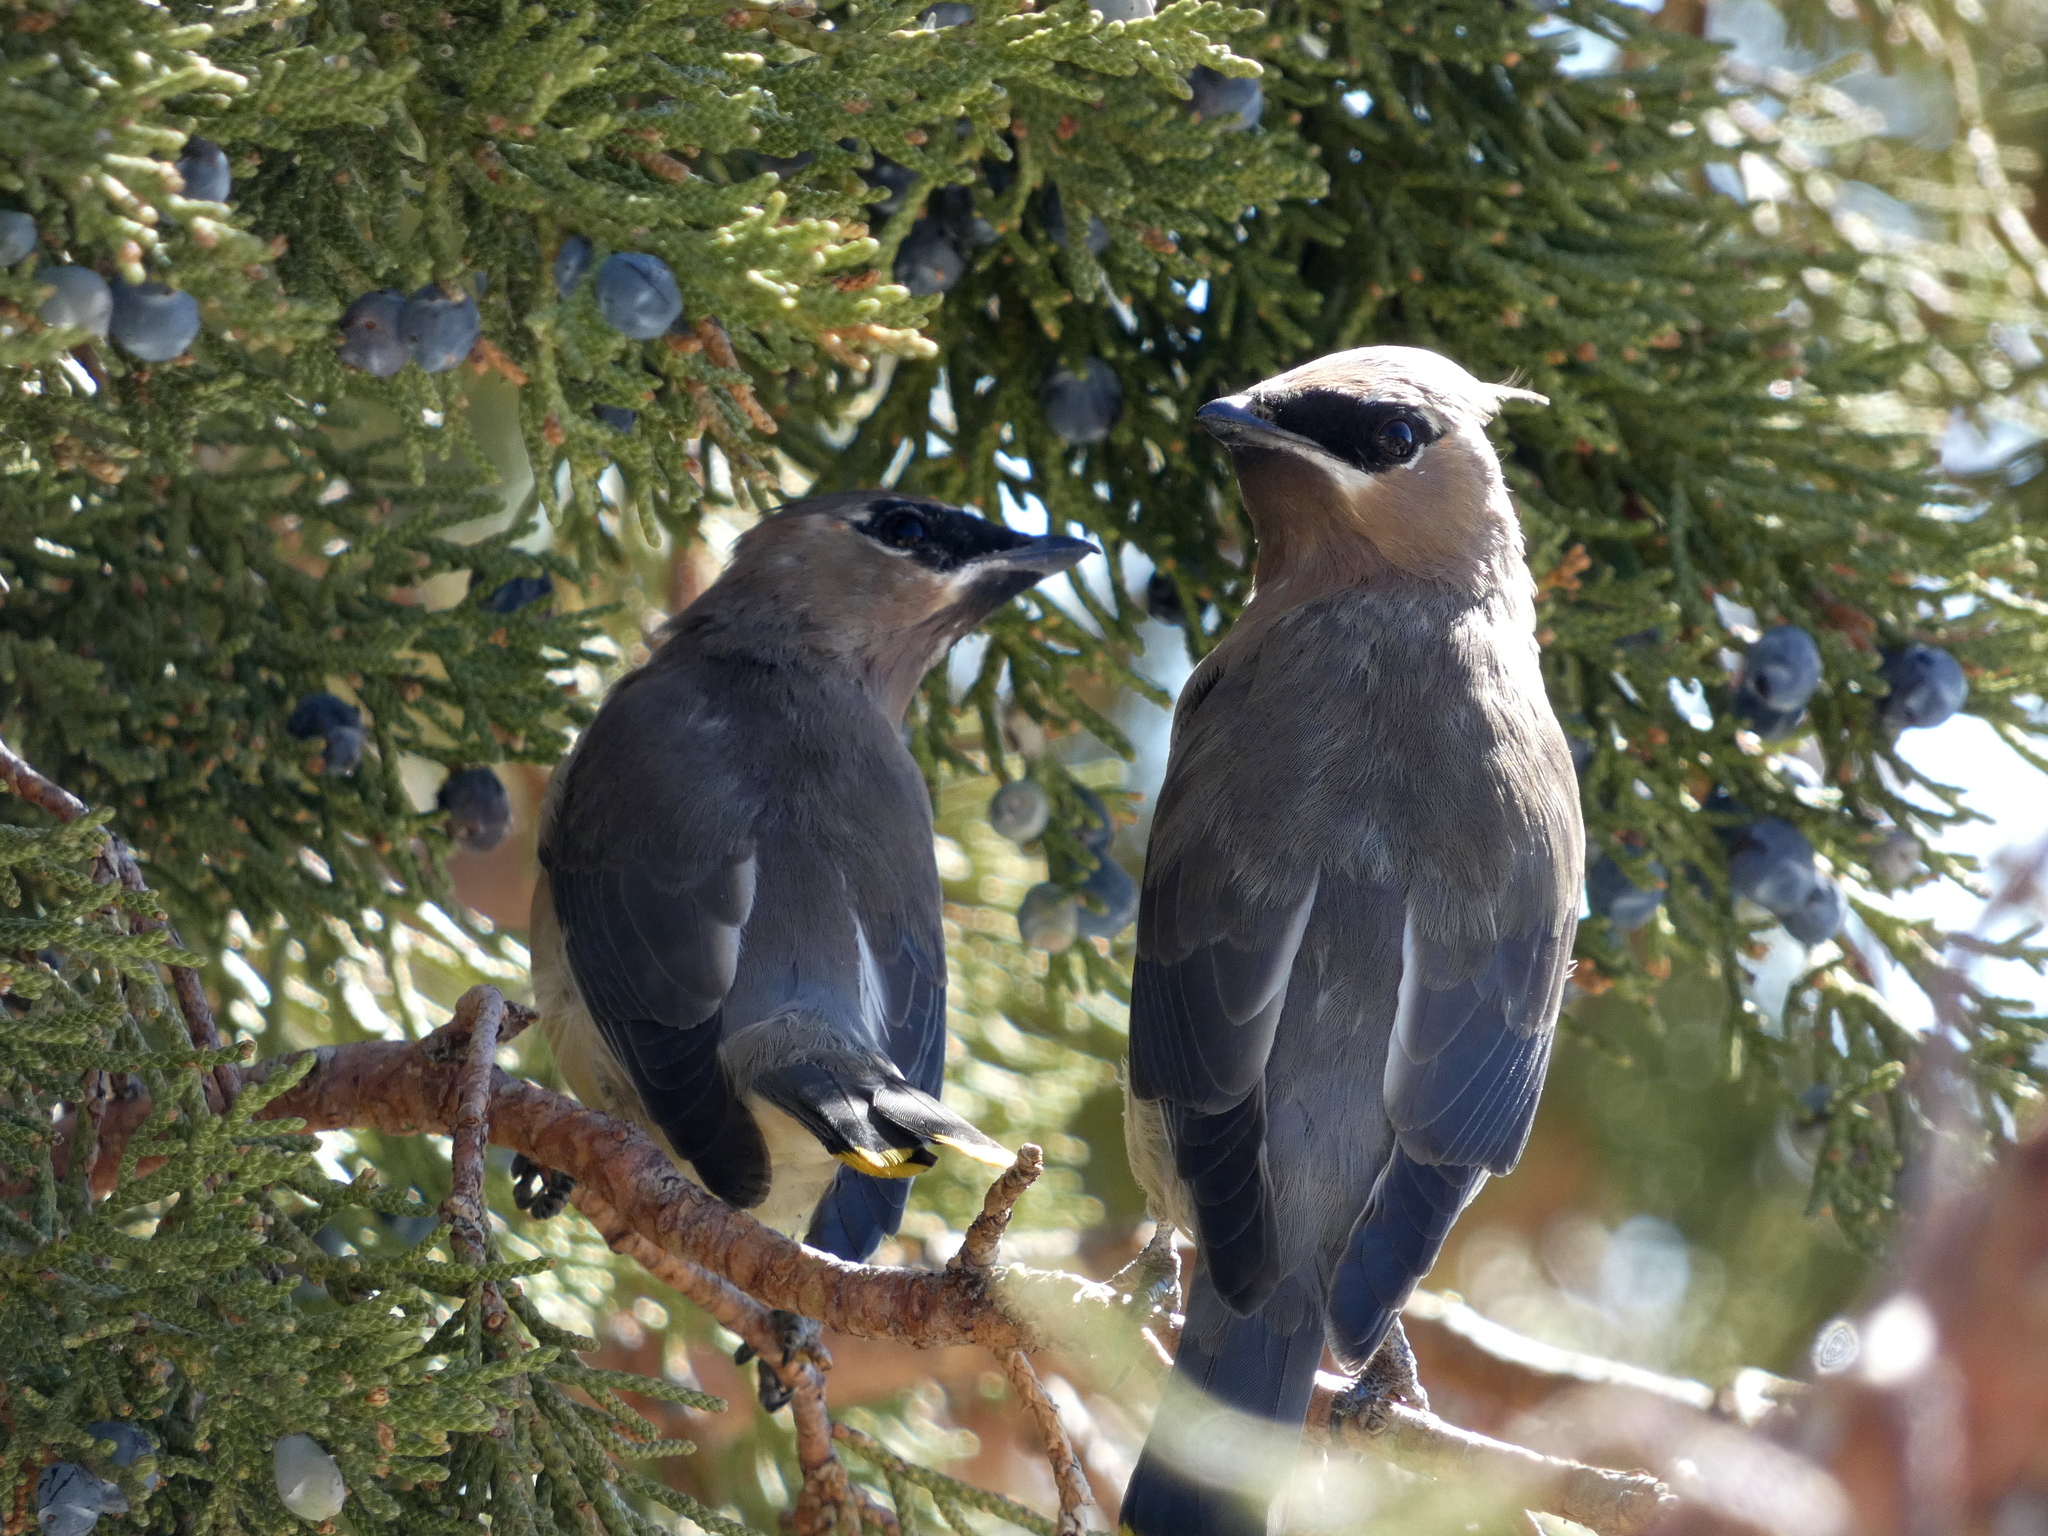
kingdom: Animalia
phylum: Chordata
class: Aves
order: Passeriformes
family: Bombycillidae
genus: Bombycilla
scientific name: Bombycilla cedrorum
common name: Cedar waxwing
